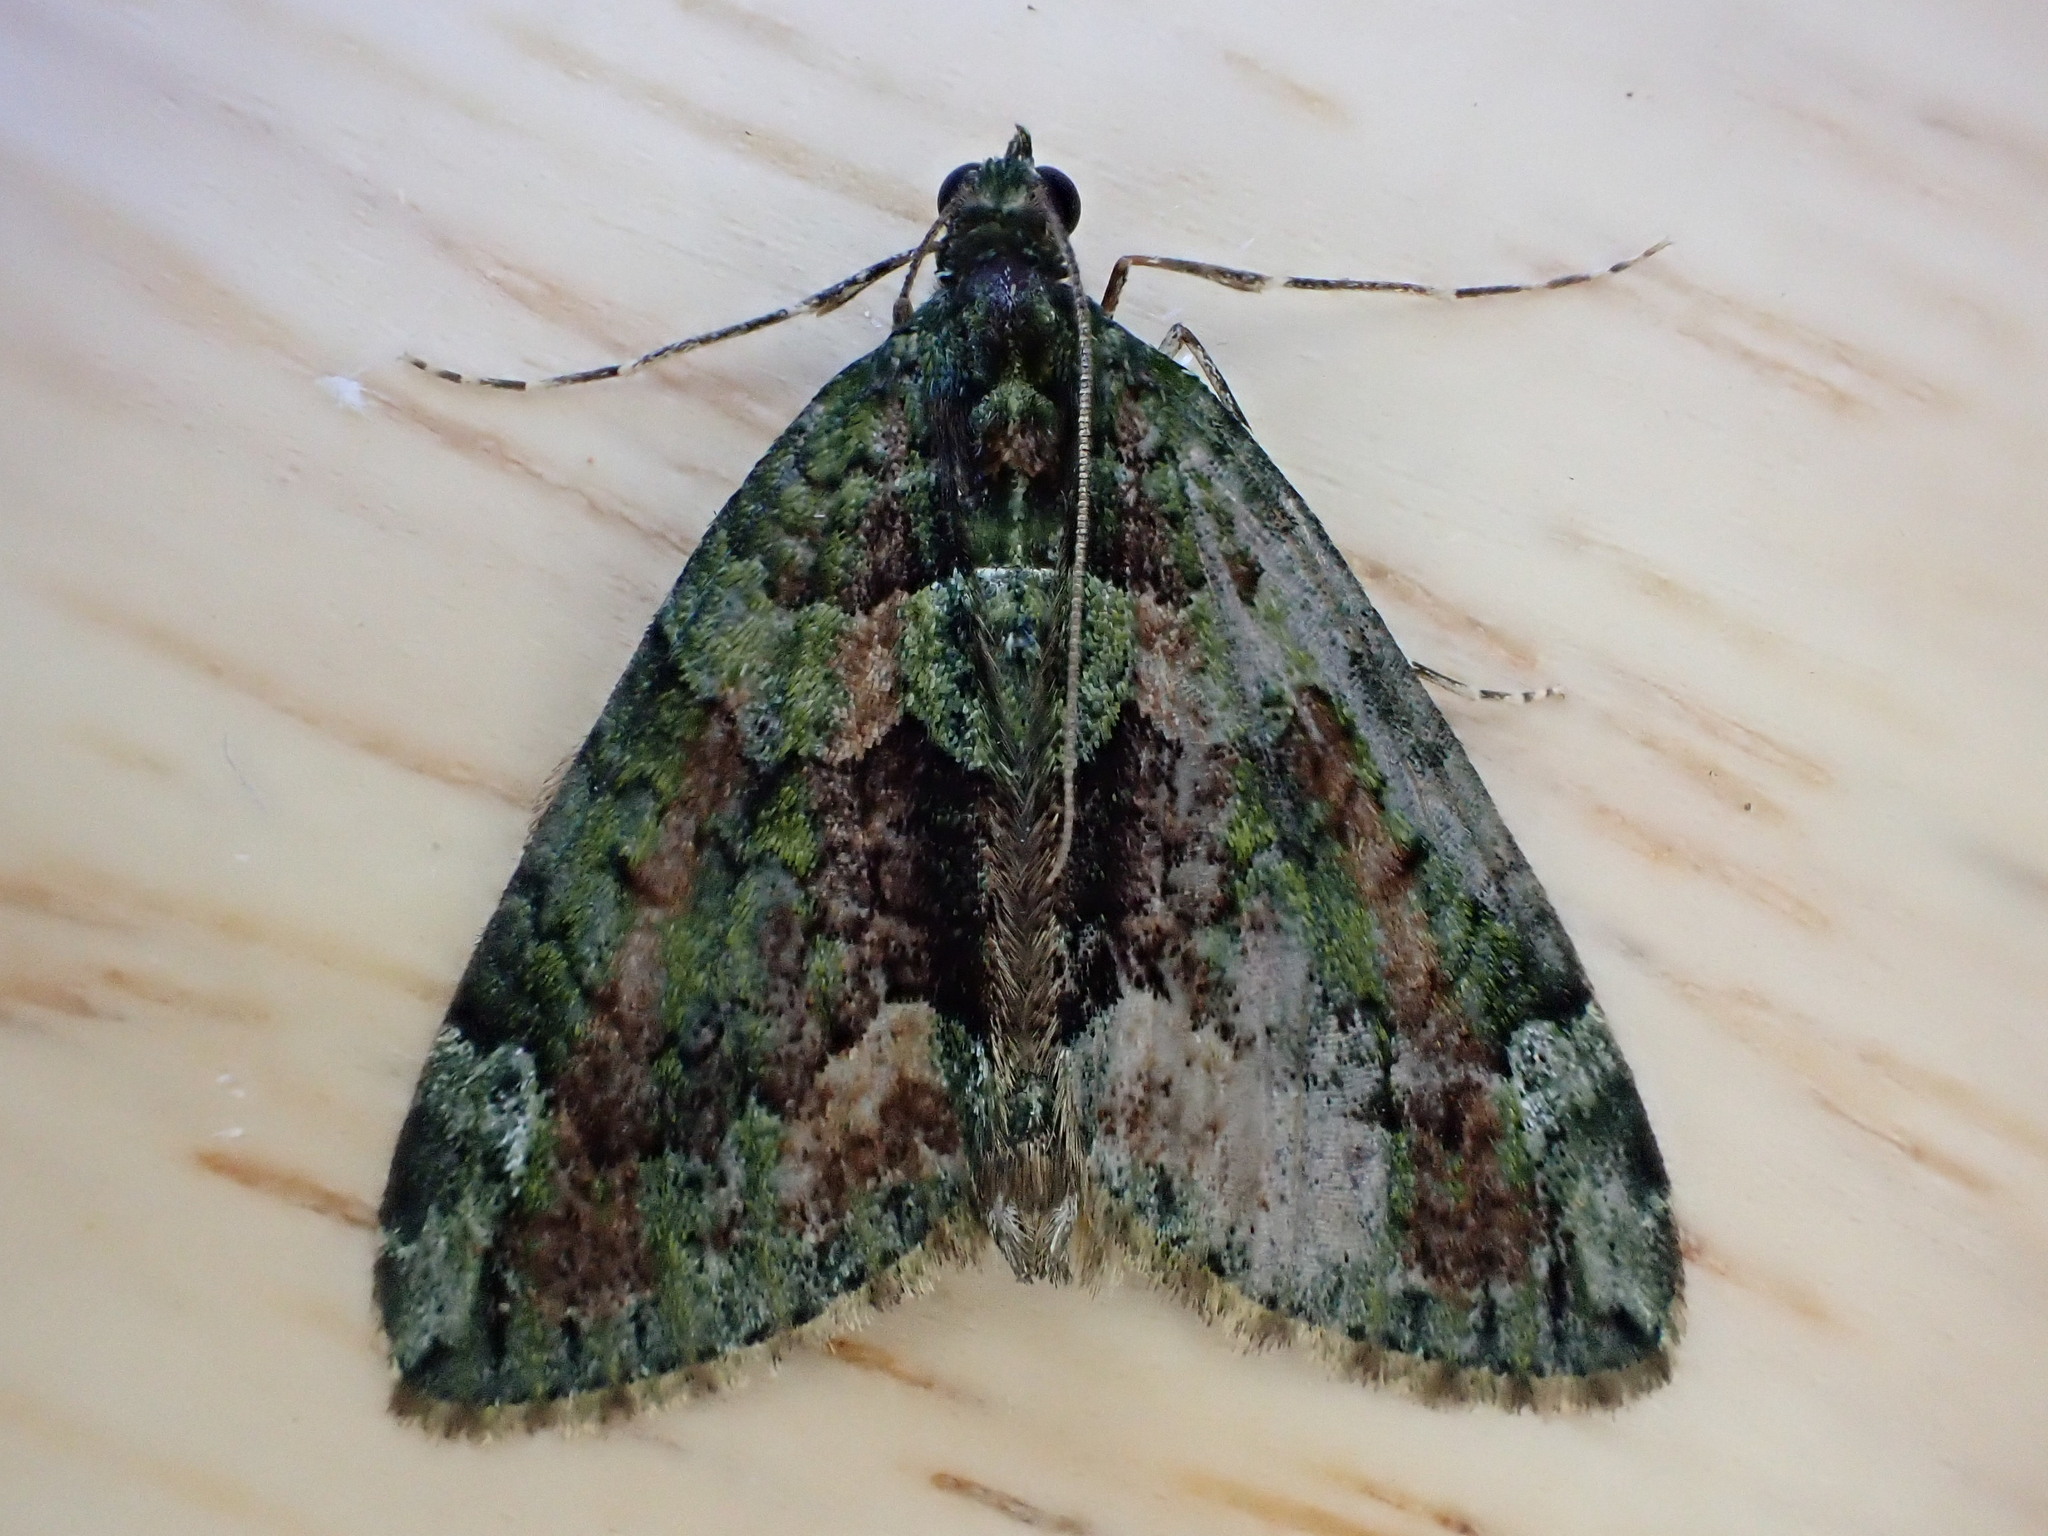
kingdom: Animalia
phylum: Arthropoda
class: Insecta
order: Lepidoptera
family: Geometridae
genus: Chloroclysta
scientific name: Chloroclysta siterata
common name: Red-green carpet
